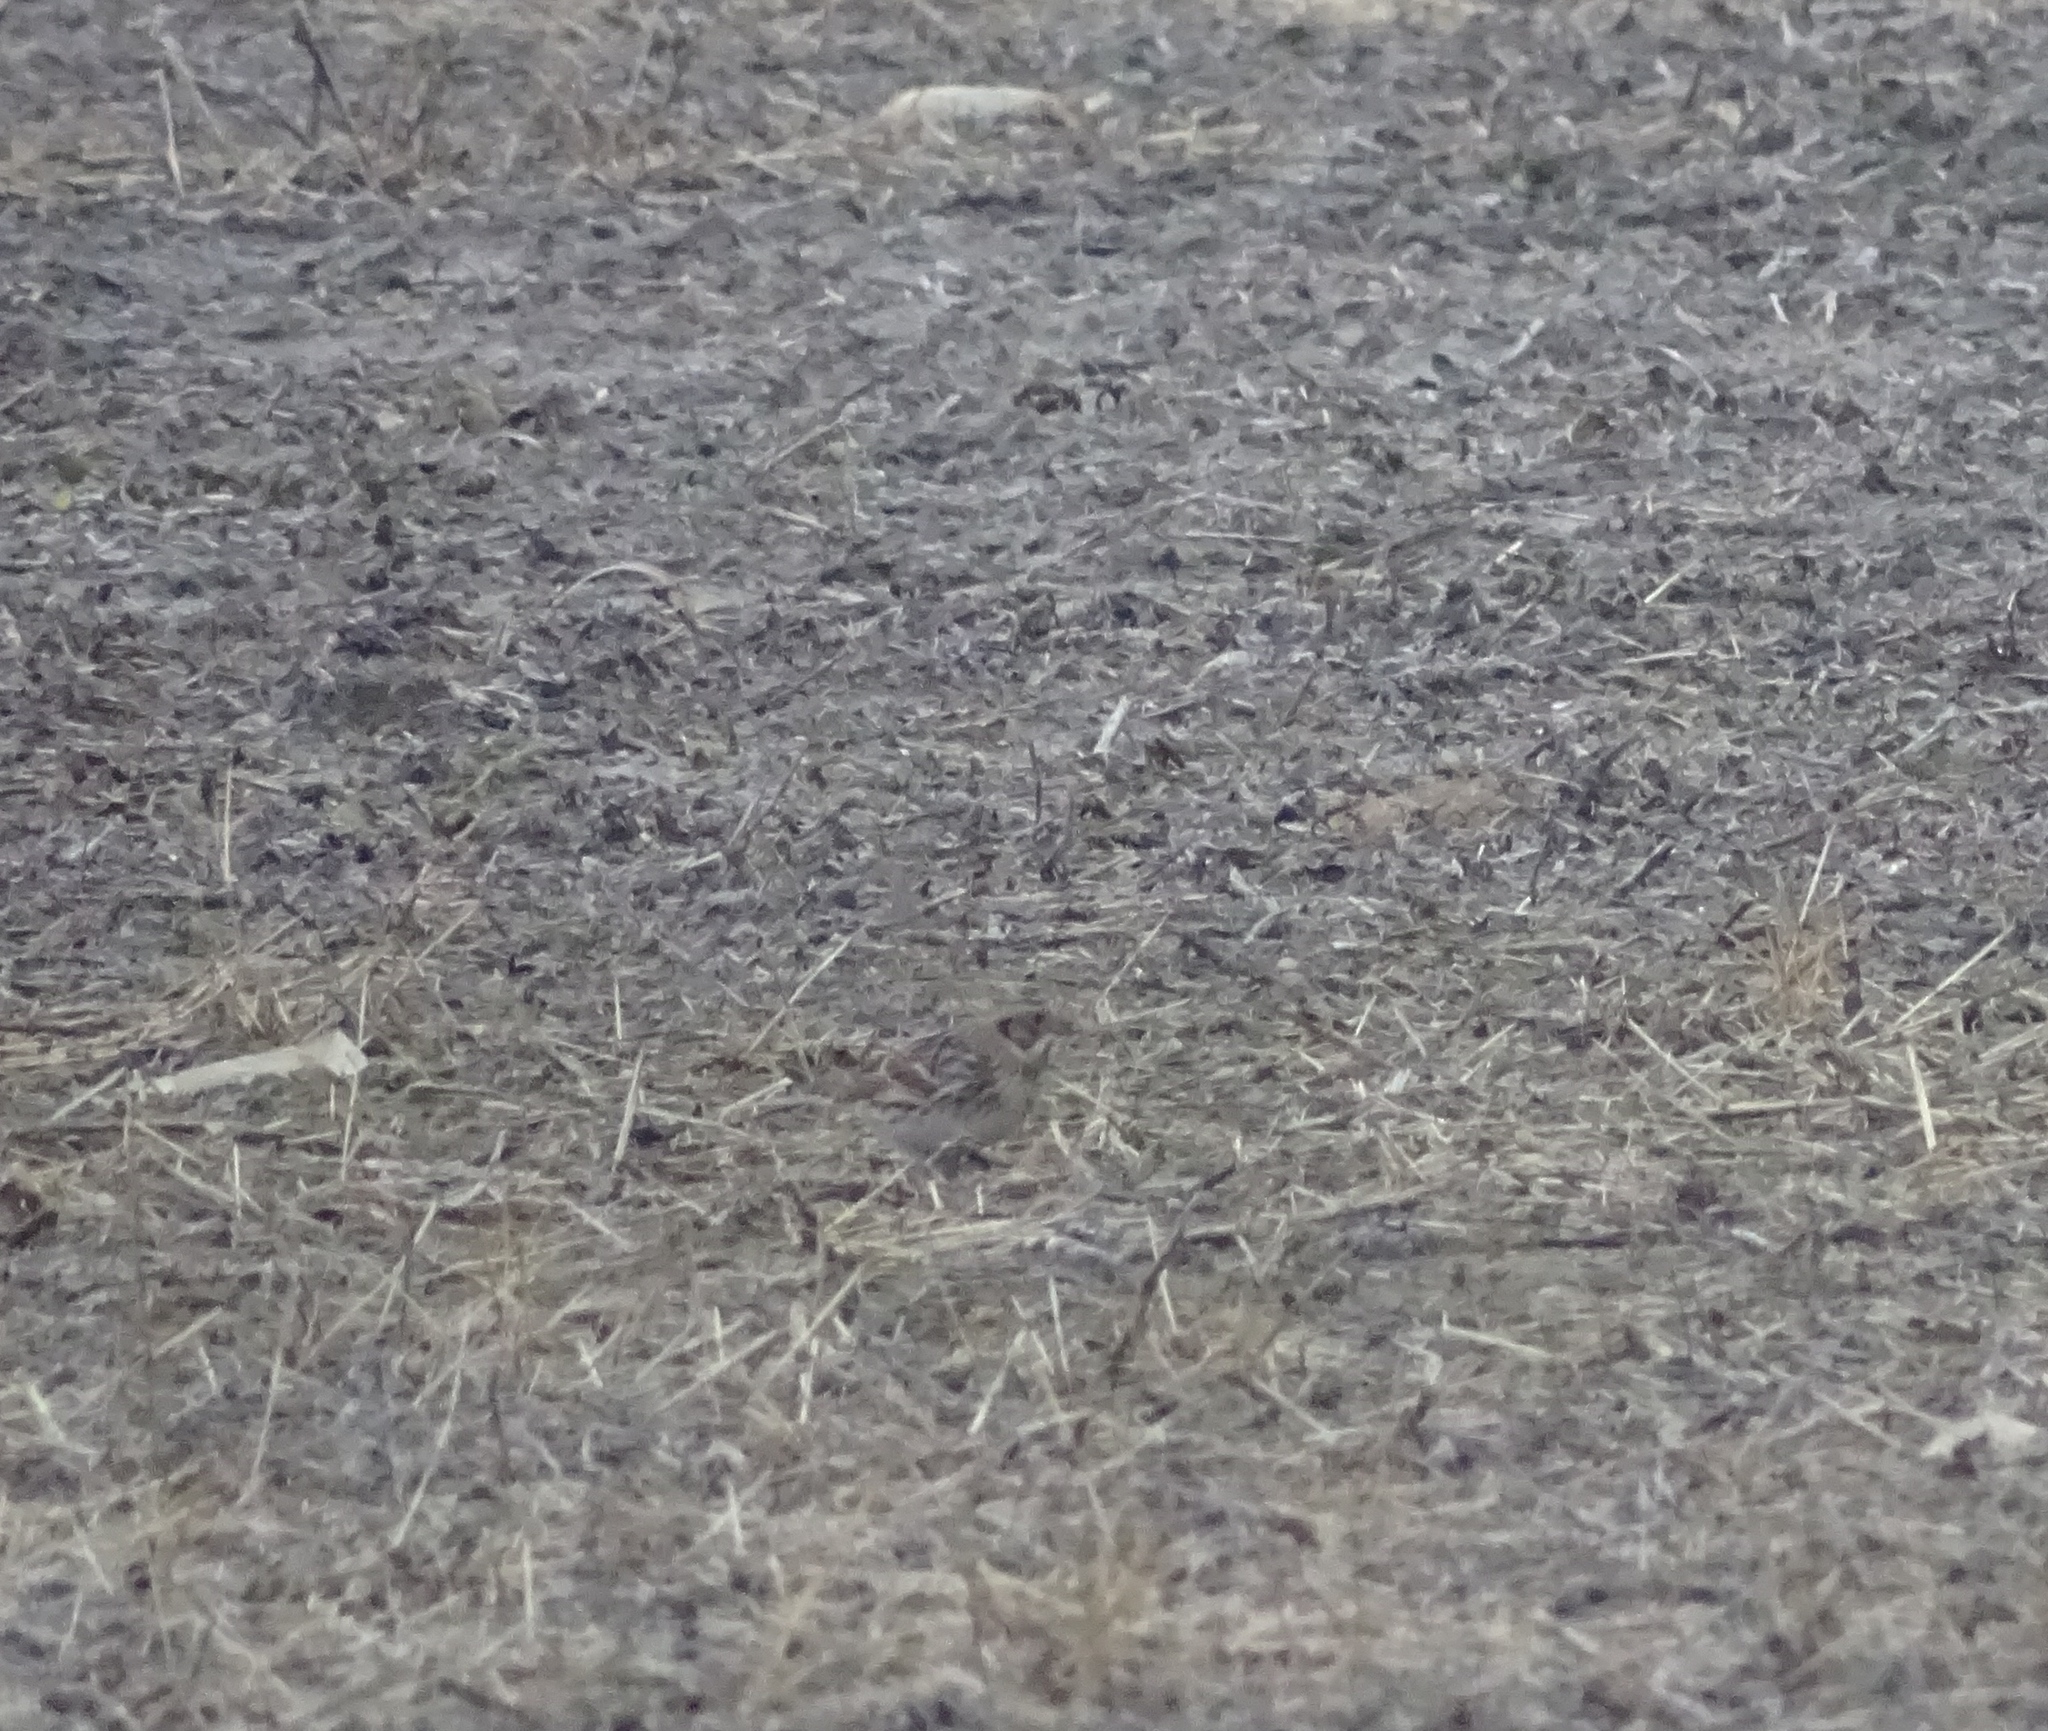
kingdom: Animalia
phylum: Chordata
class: Aves
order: Passeriformes
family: Calcariidae
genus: Calcarius
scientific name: Calcarius lapponicus
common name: Lapland longspur
